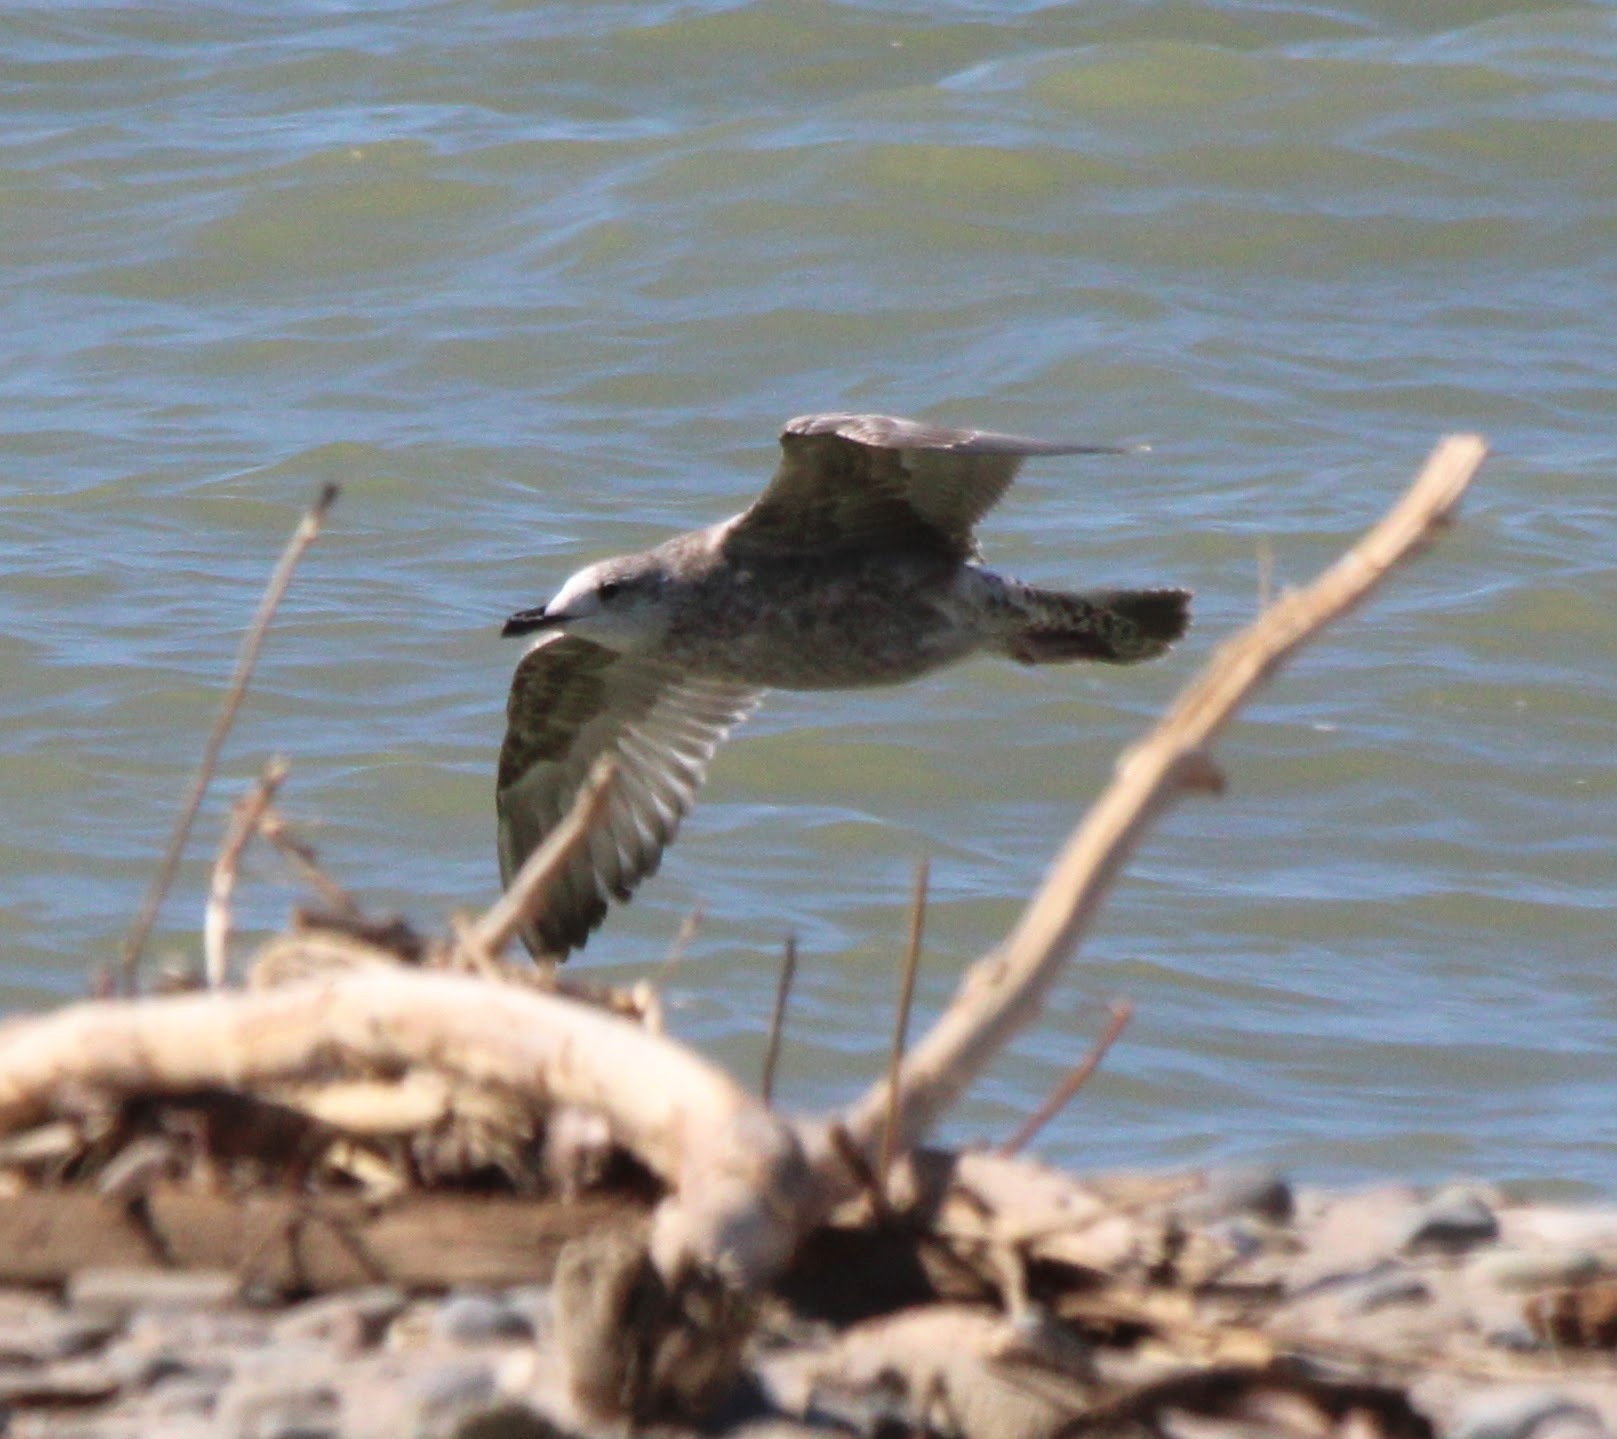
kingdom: Animalia
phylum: Chordata
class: Aves
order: Charadriiformes
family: Laridae
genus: Larus
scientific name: Larus argentatus
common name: Herring gull
